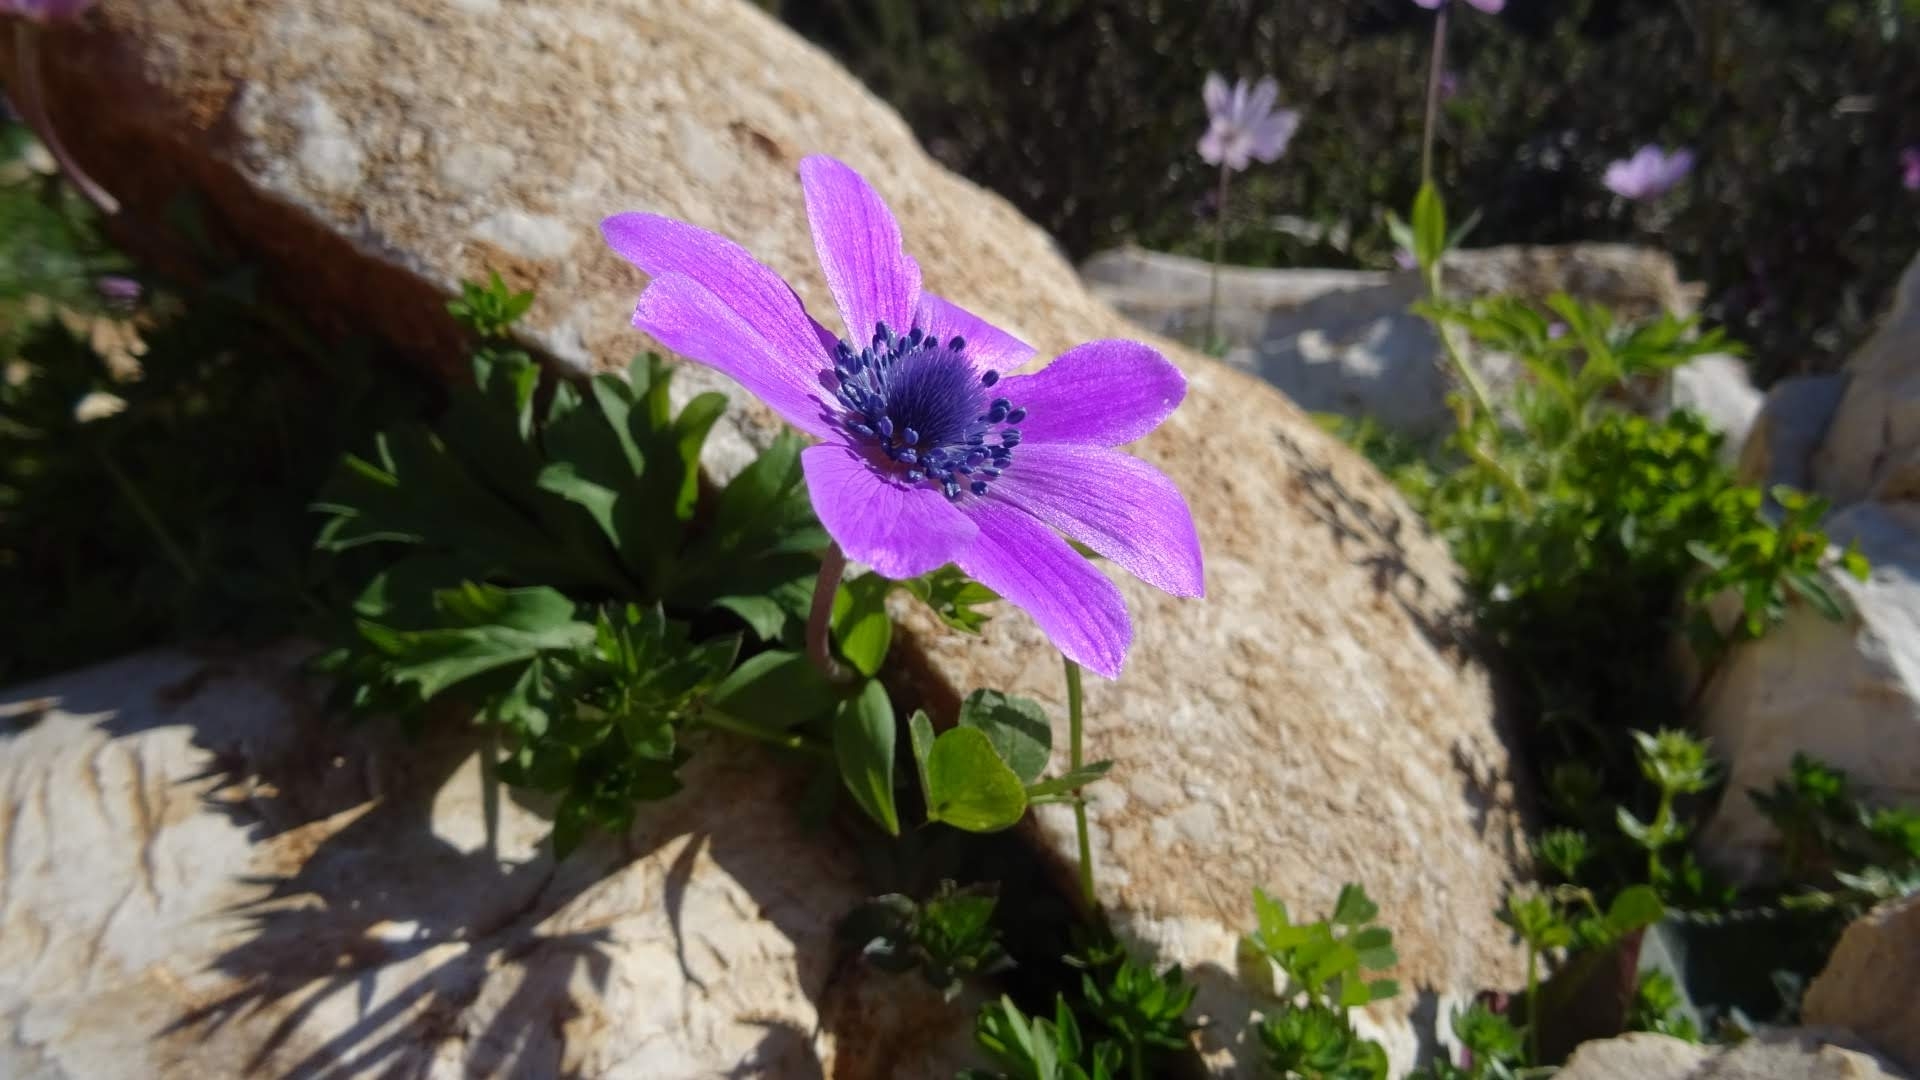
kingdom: Plantae
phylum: Tracheophyta
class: Magnoliopsida
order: Ranunculales
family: Ranunculaceae
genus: Anemone
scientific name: Anemone pavonina
